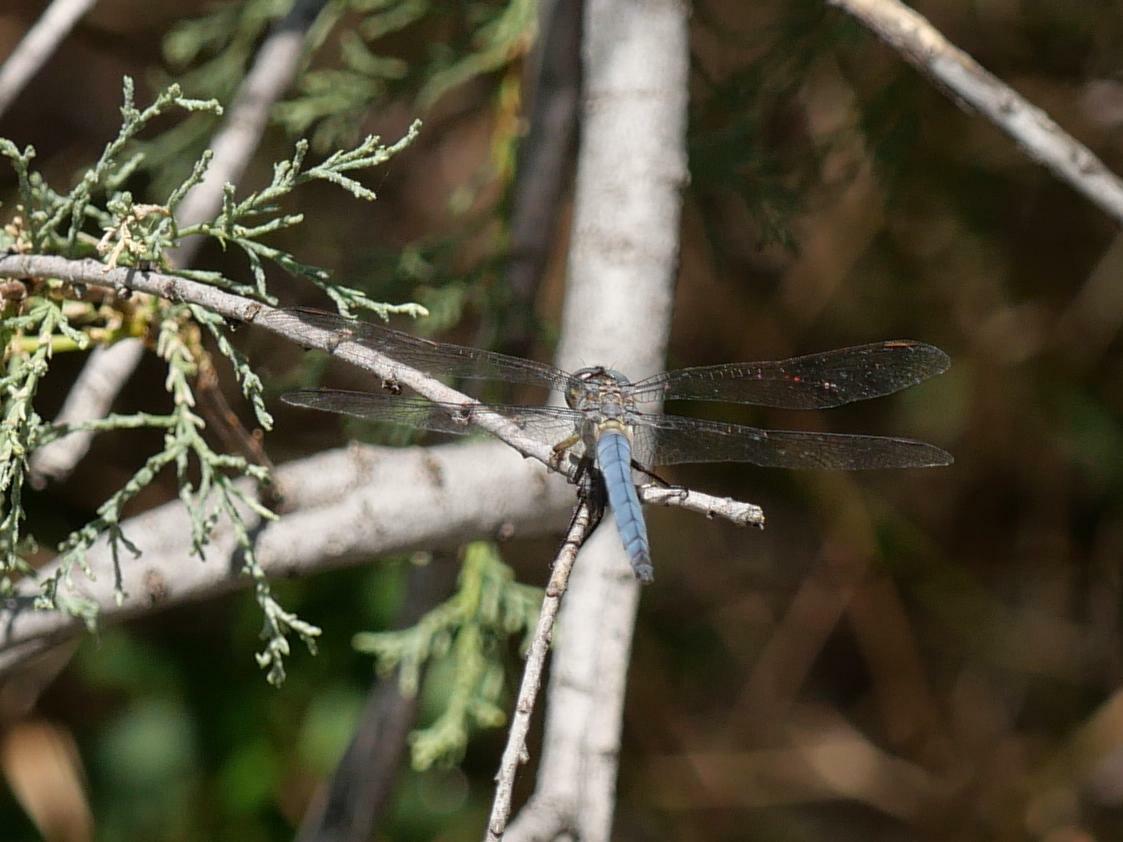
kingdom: Animalia
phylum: Arthropoda
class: Insecta
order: Odonata
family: Libellulidae
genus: Orthetrum
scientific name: Orthetrum coerulescens
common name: Keeled skimmer
